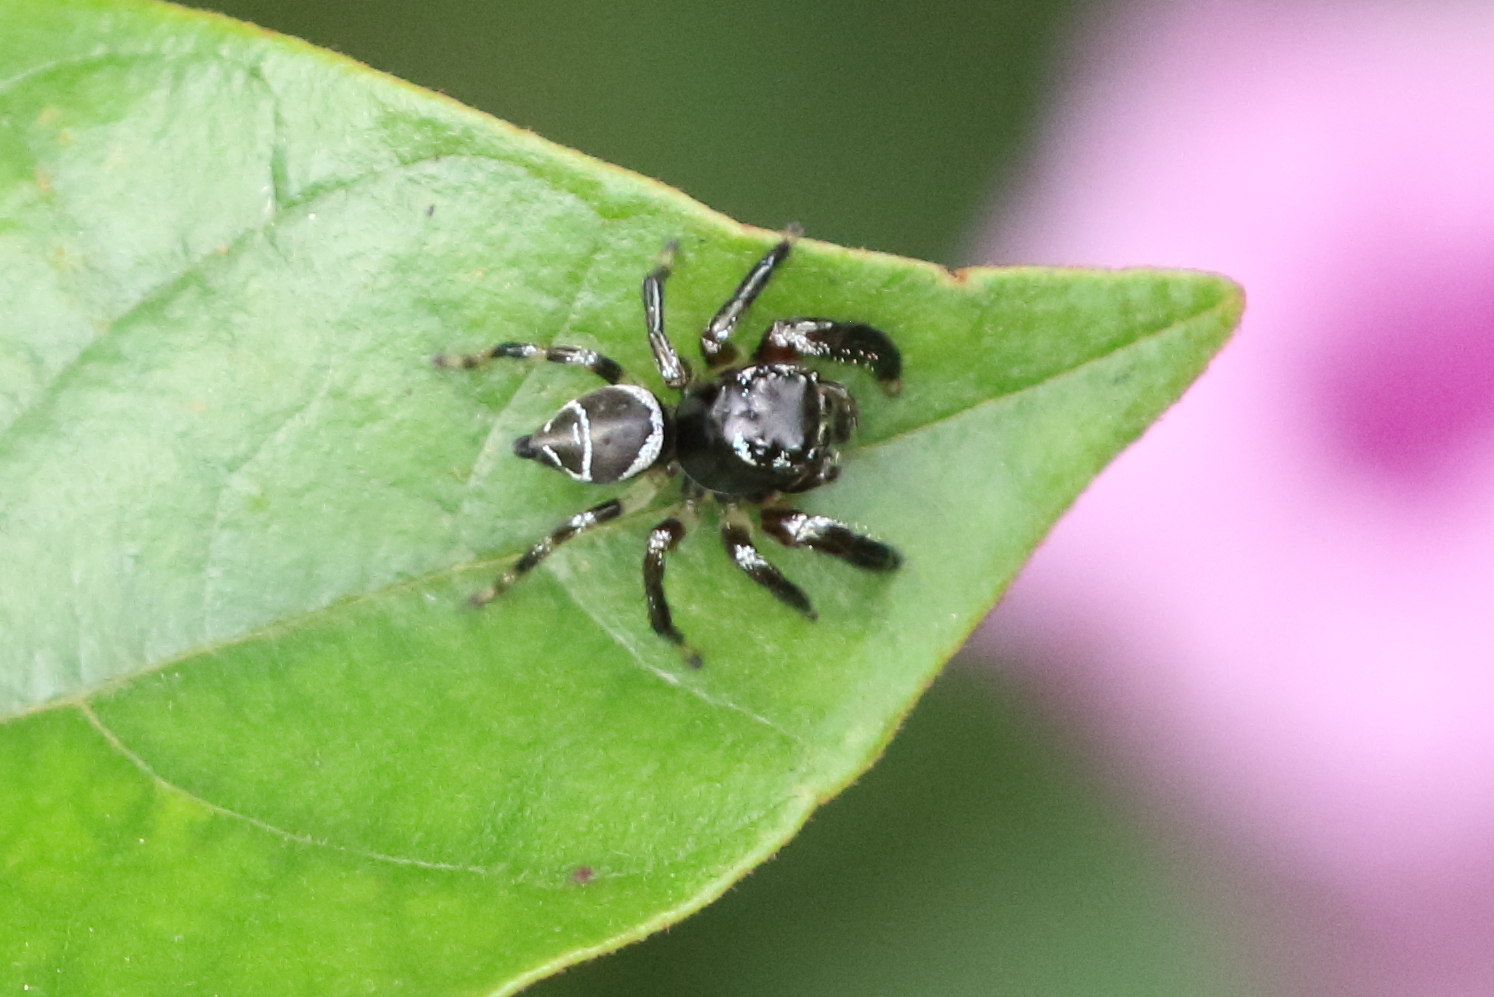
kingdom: Animalia
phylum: Arthropoda
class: Arachnida
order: Araneae
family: Salticidae
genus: Zenodorus
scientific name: Zenodorus durvillei
